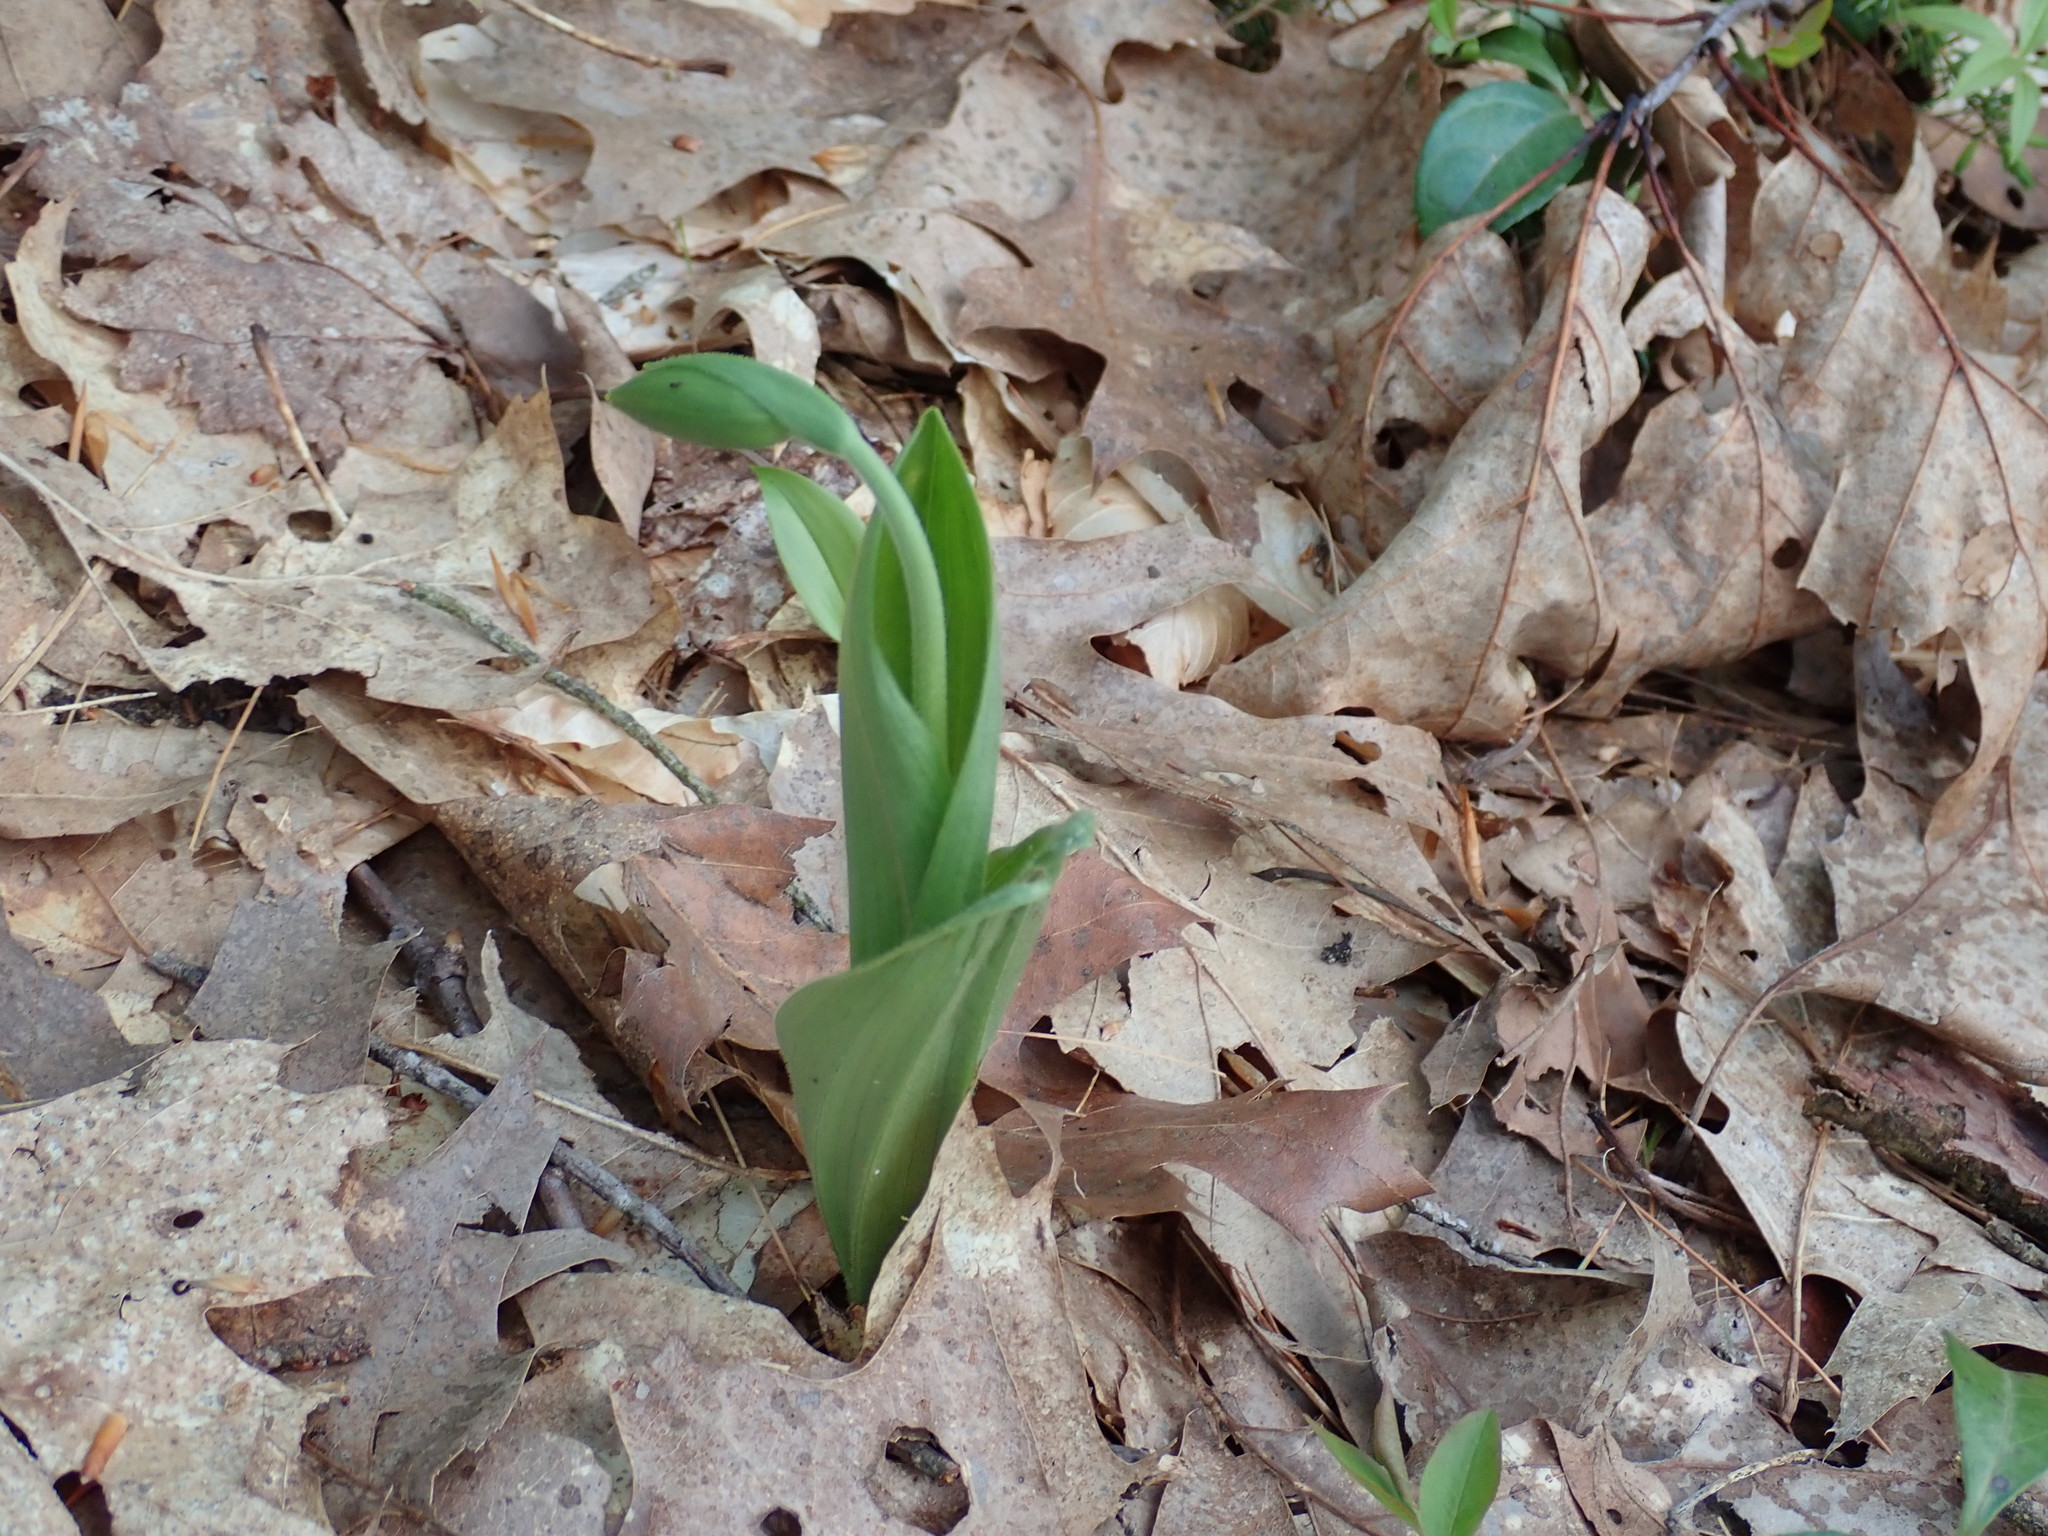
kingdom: Plantae
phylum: Tracheophyta
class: Liliopsida
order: Asparagales
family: Orchidaceae
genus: Cypripedium
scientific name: Cypripedium acaule
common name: Pink lady's-slipper
